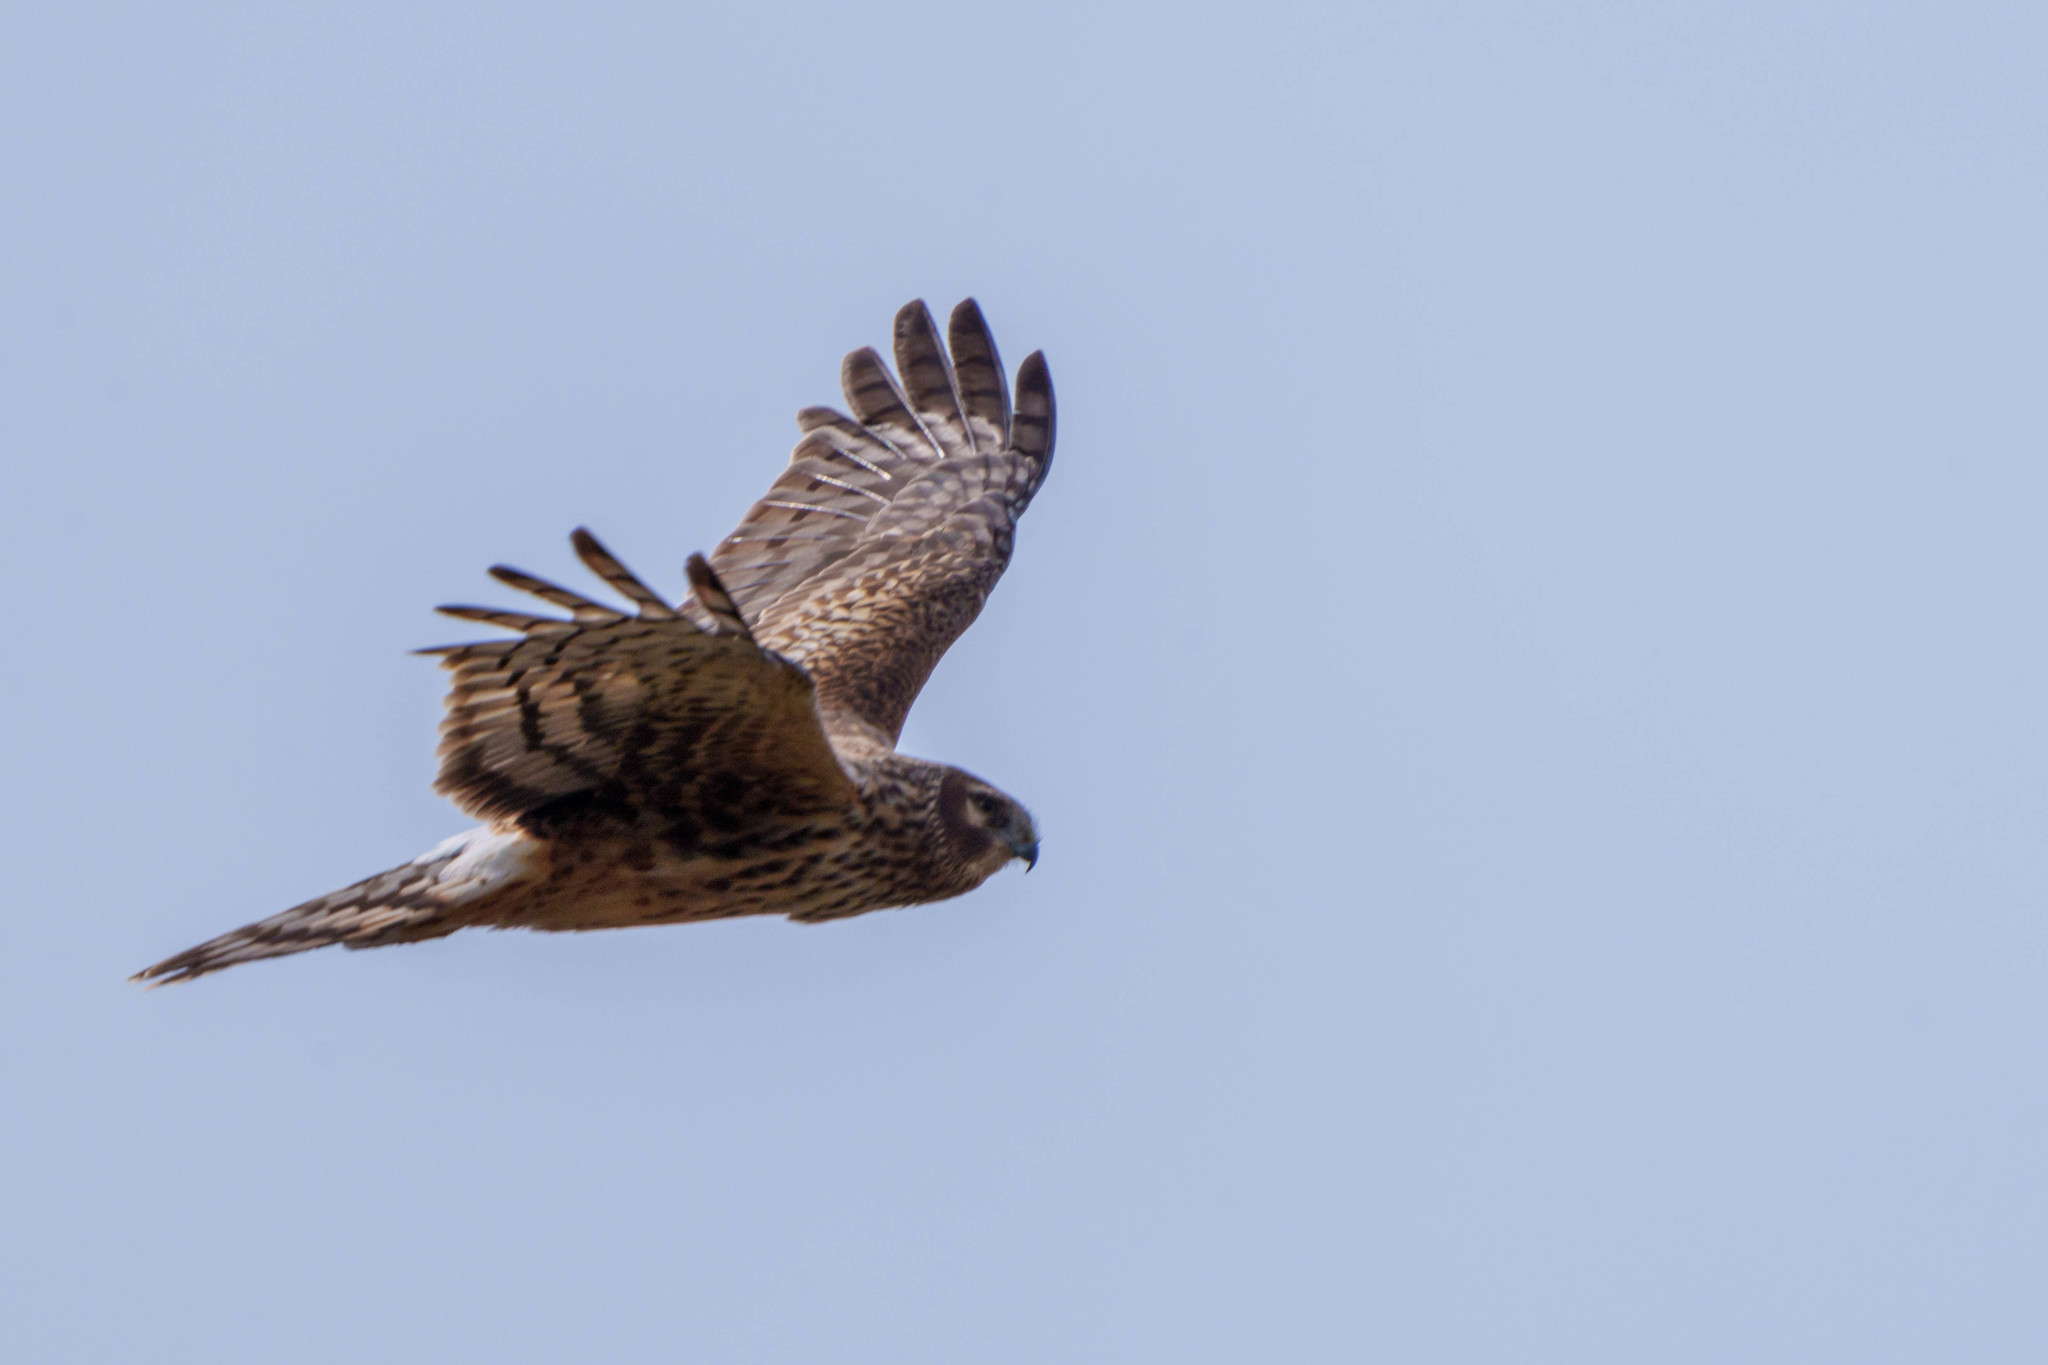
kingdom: Animalia
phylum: Chordata
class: Aves
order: Accipitriformes
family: Accipitridae
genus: Circus
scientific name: Circus cyaneus
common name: Hen harrier
